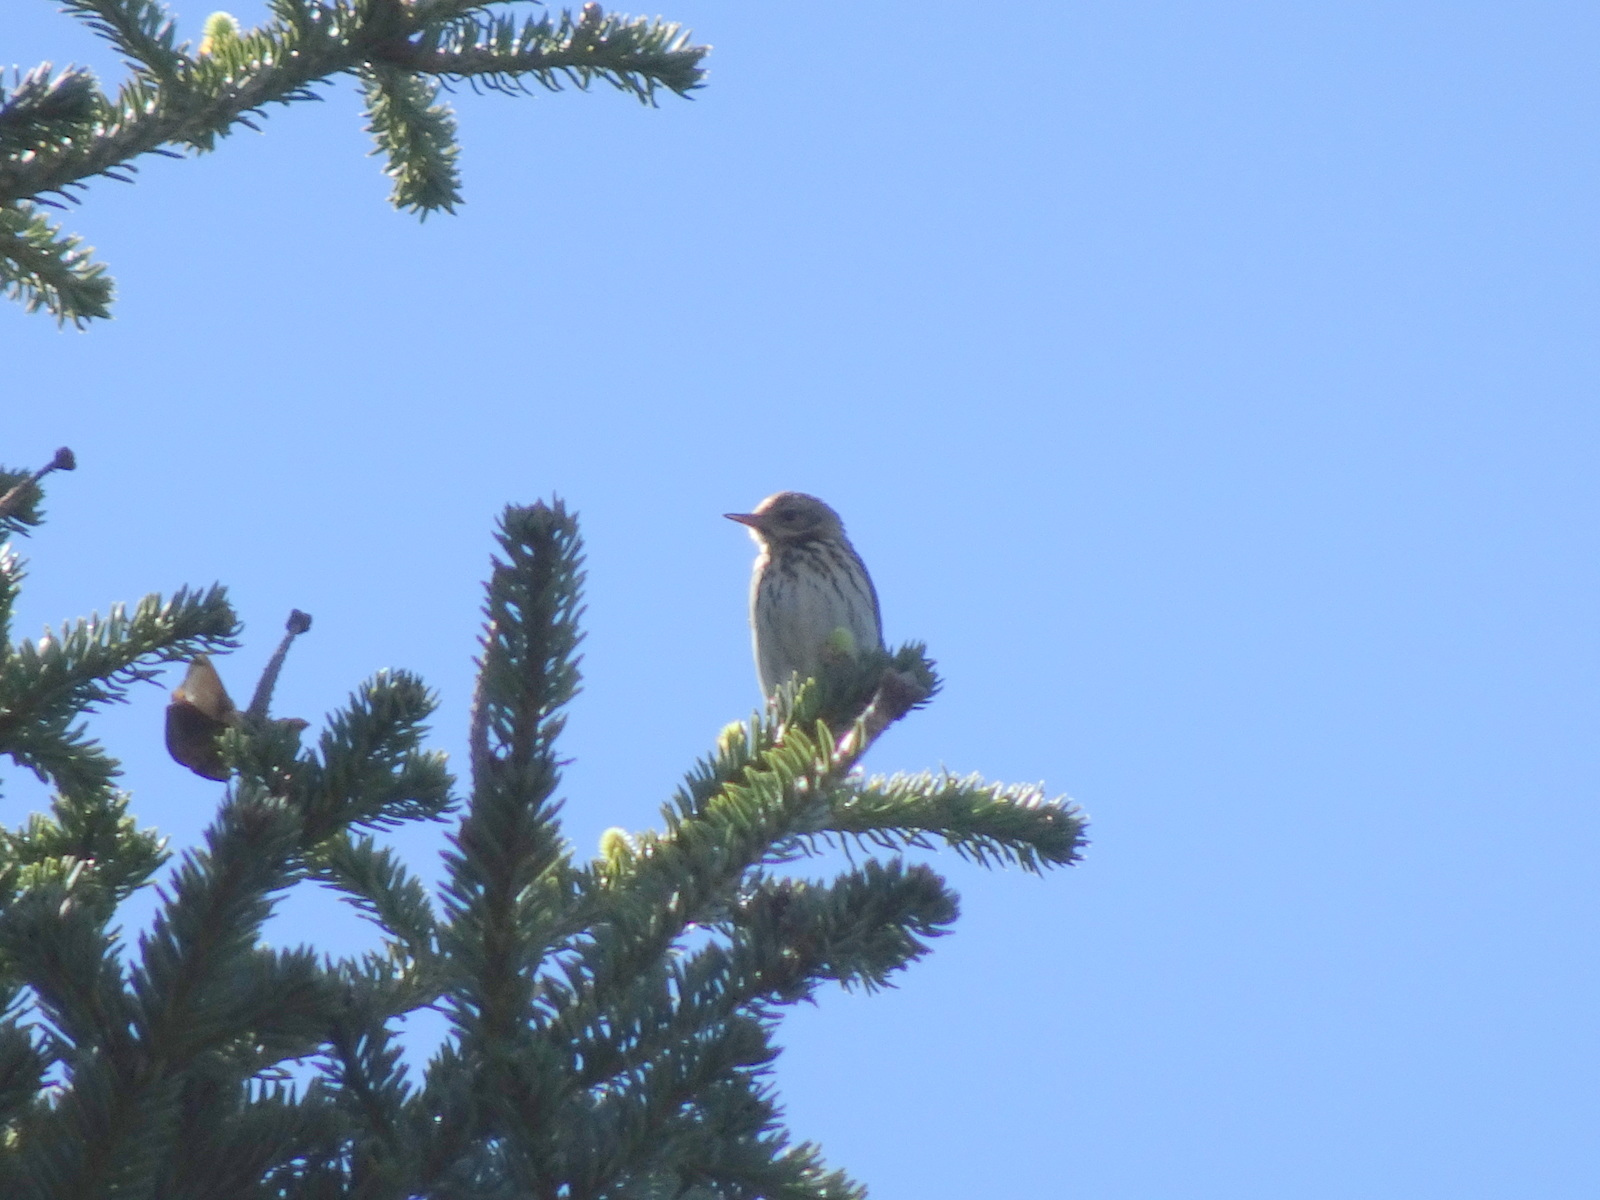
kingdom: Animalia
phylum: Chordata
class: Aves
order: Passeriformes
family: Motacillidae
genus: Anthus
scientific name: Anthus trivialis
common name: Tree pipit
